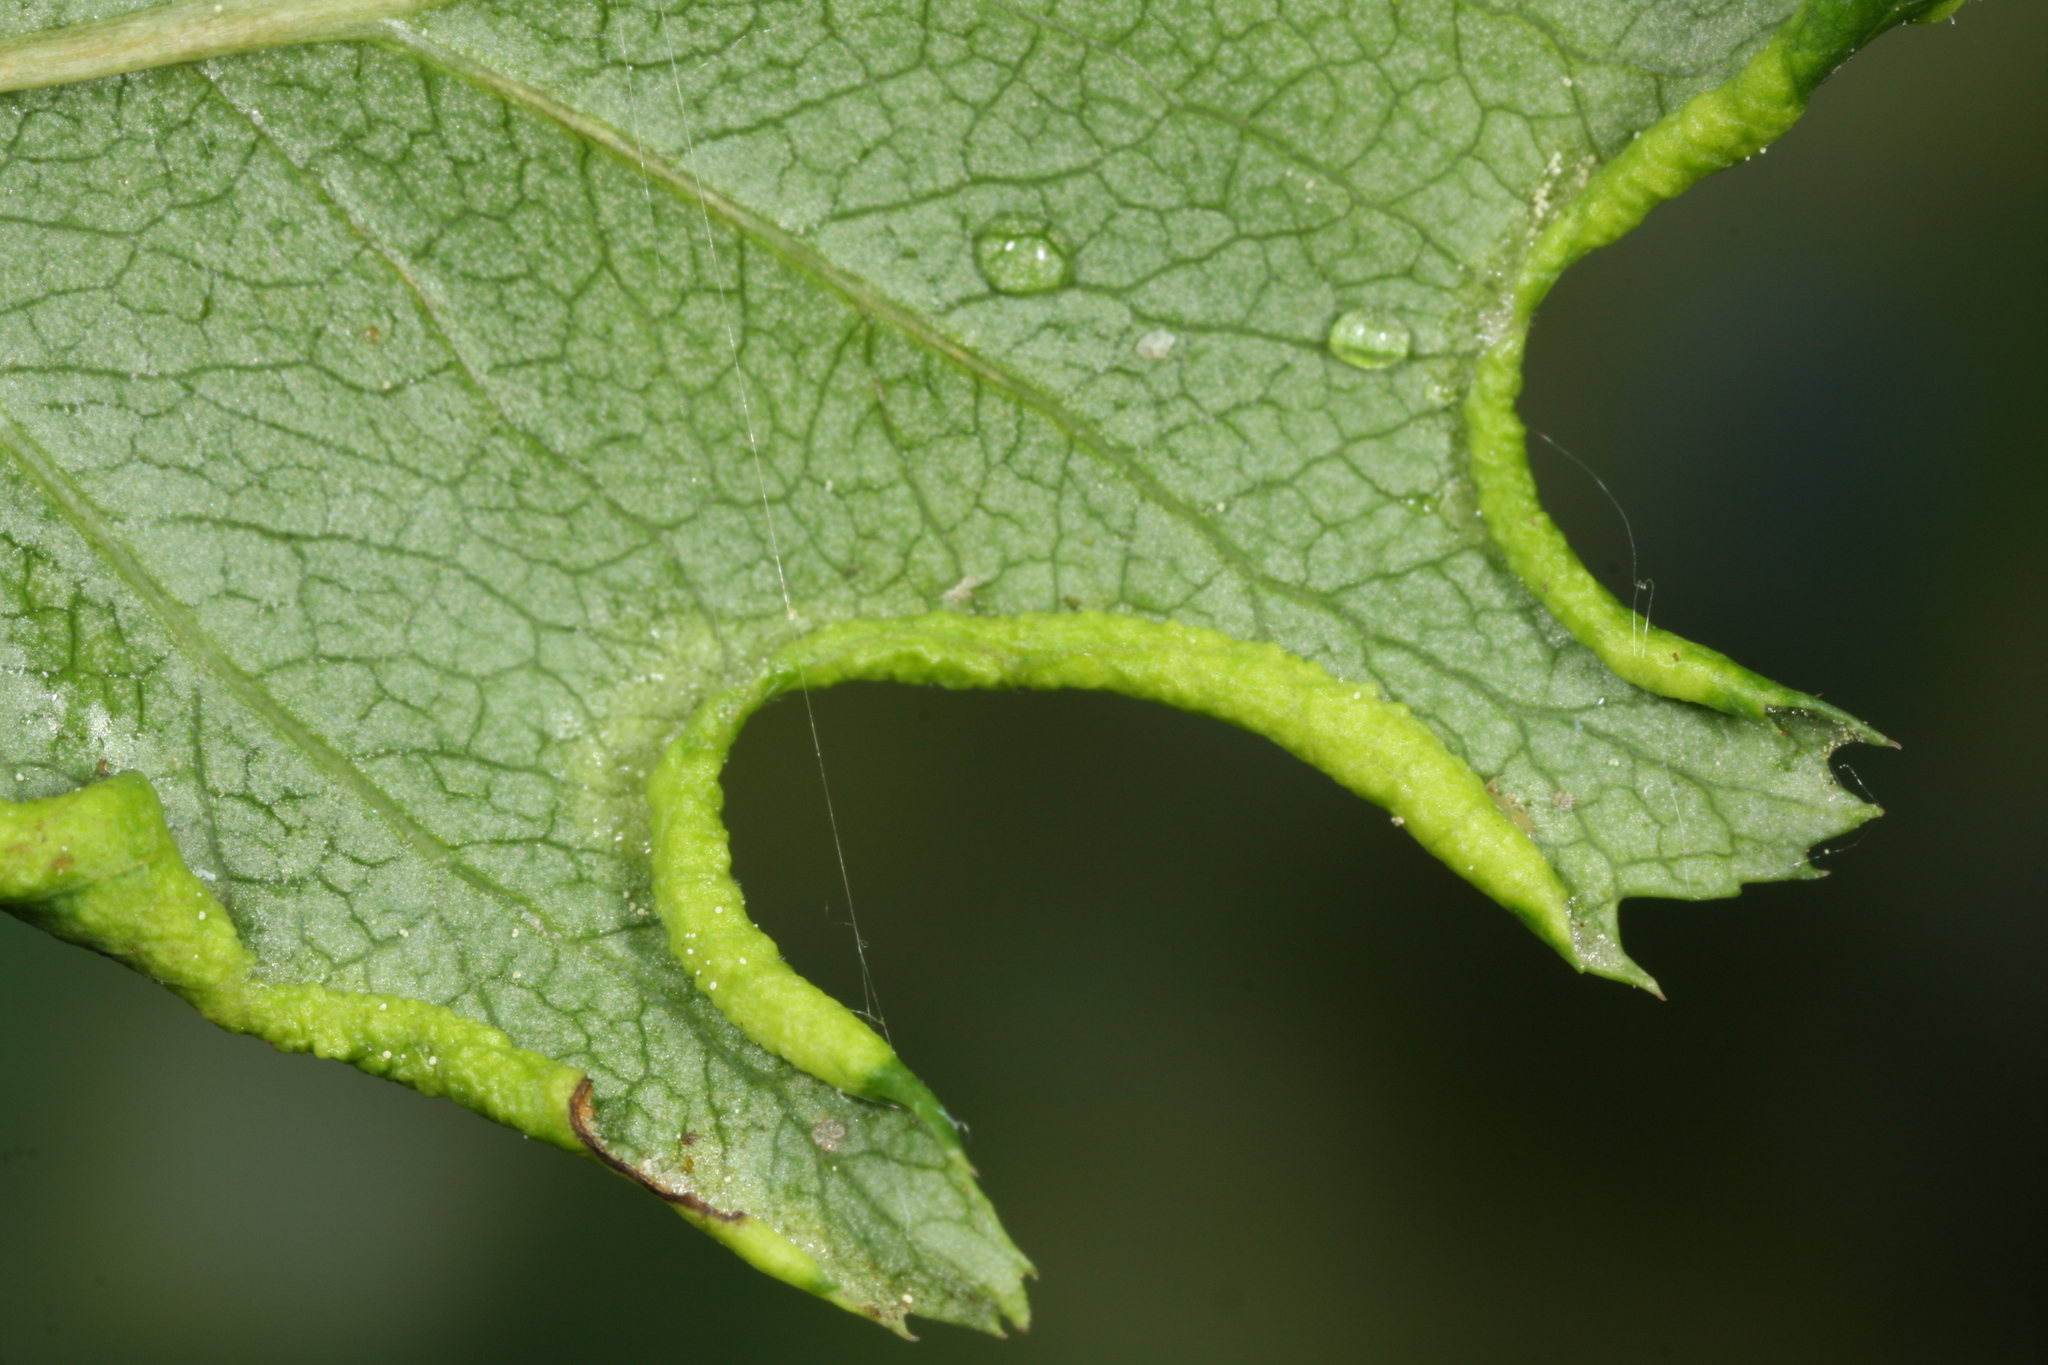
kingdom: Animalia
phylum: Arthropoda
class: Arachnida
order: Trombidiformes
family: Eriophyidae
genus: Phyllocoptes
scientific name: Phyllocoptes goniothorax
